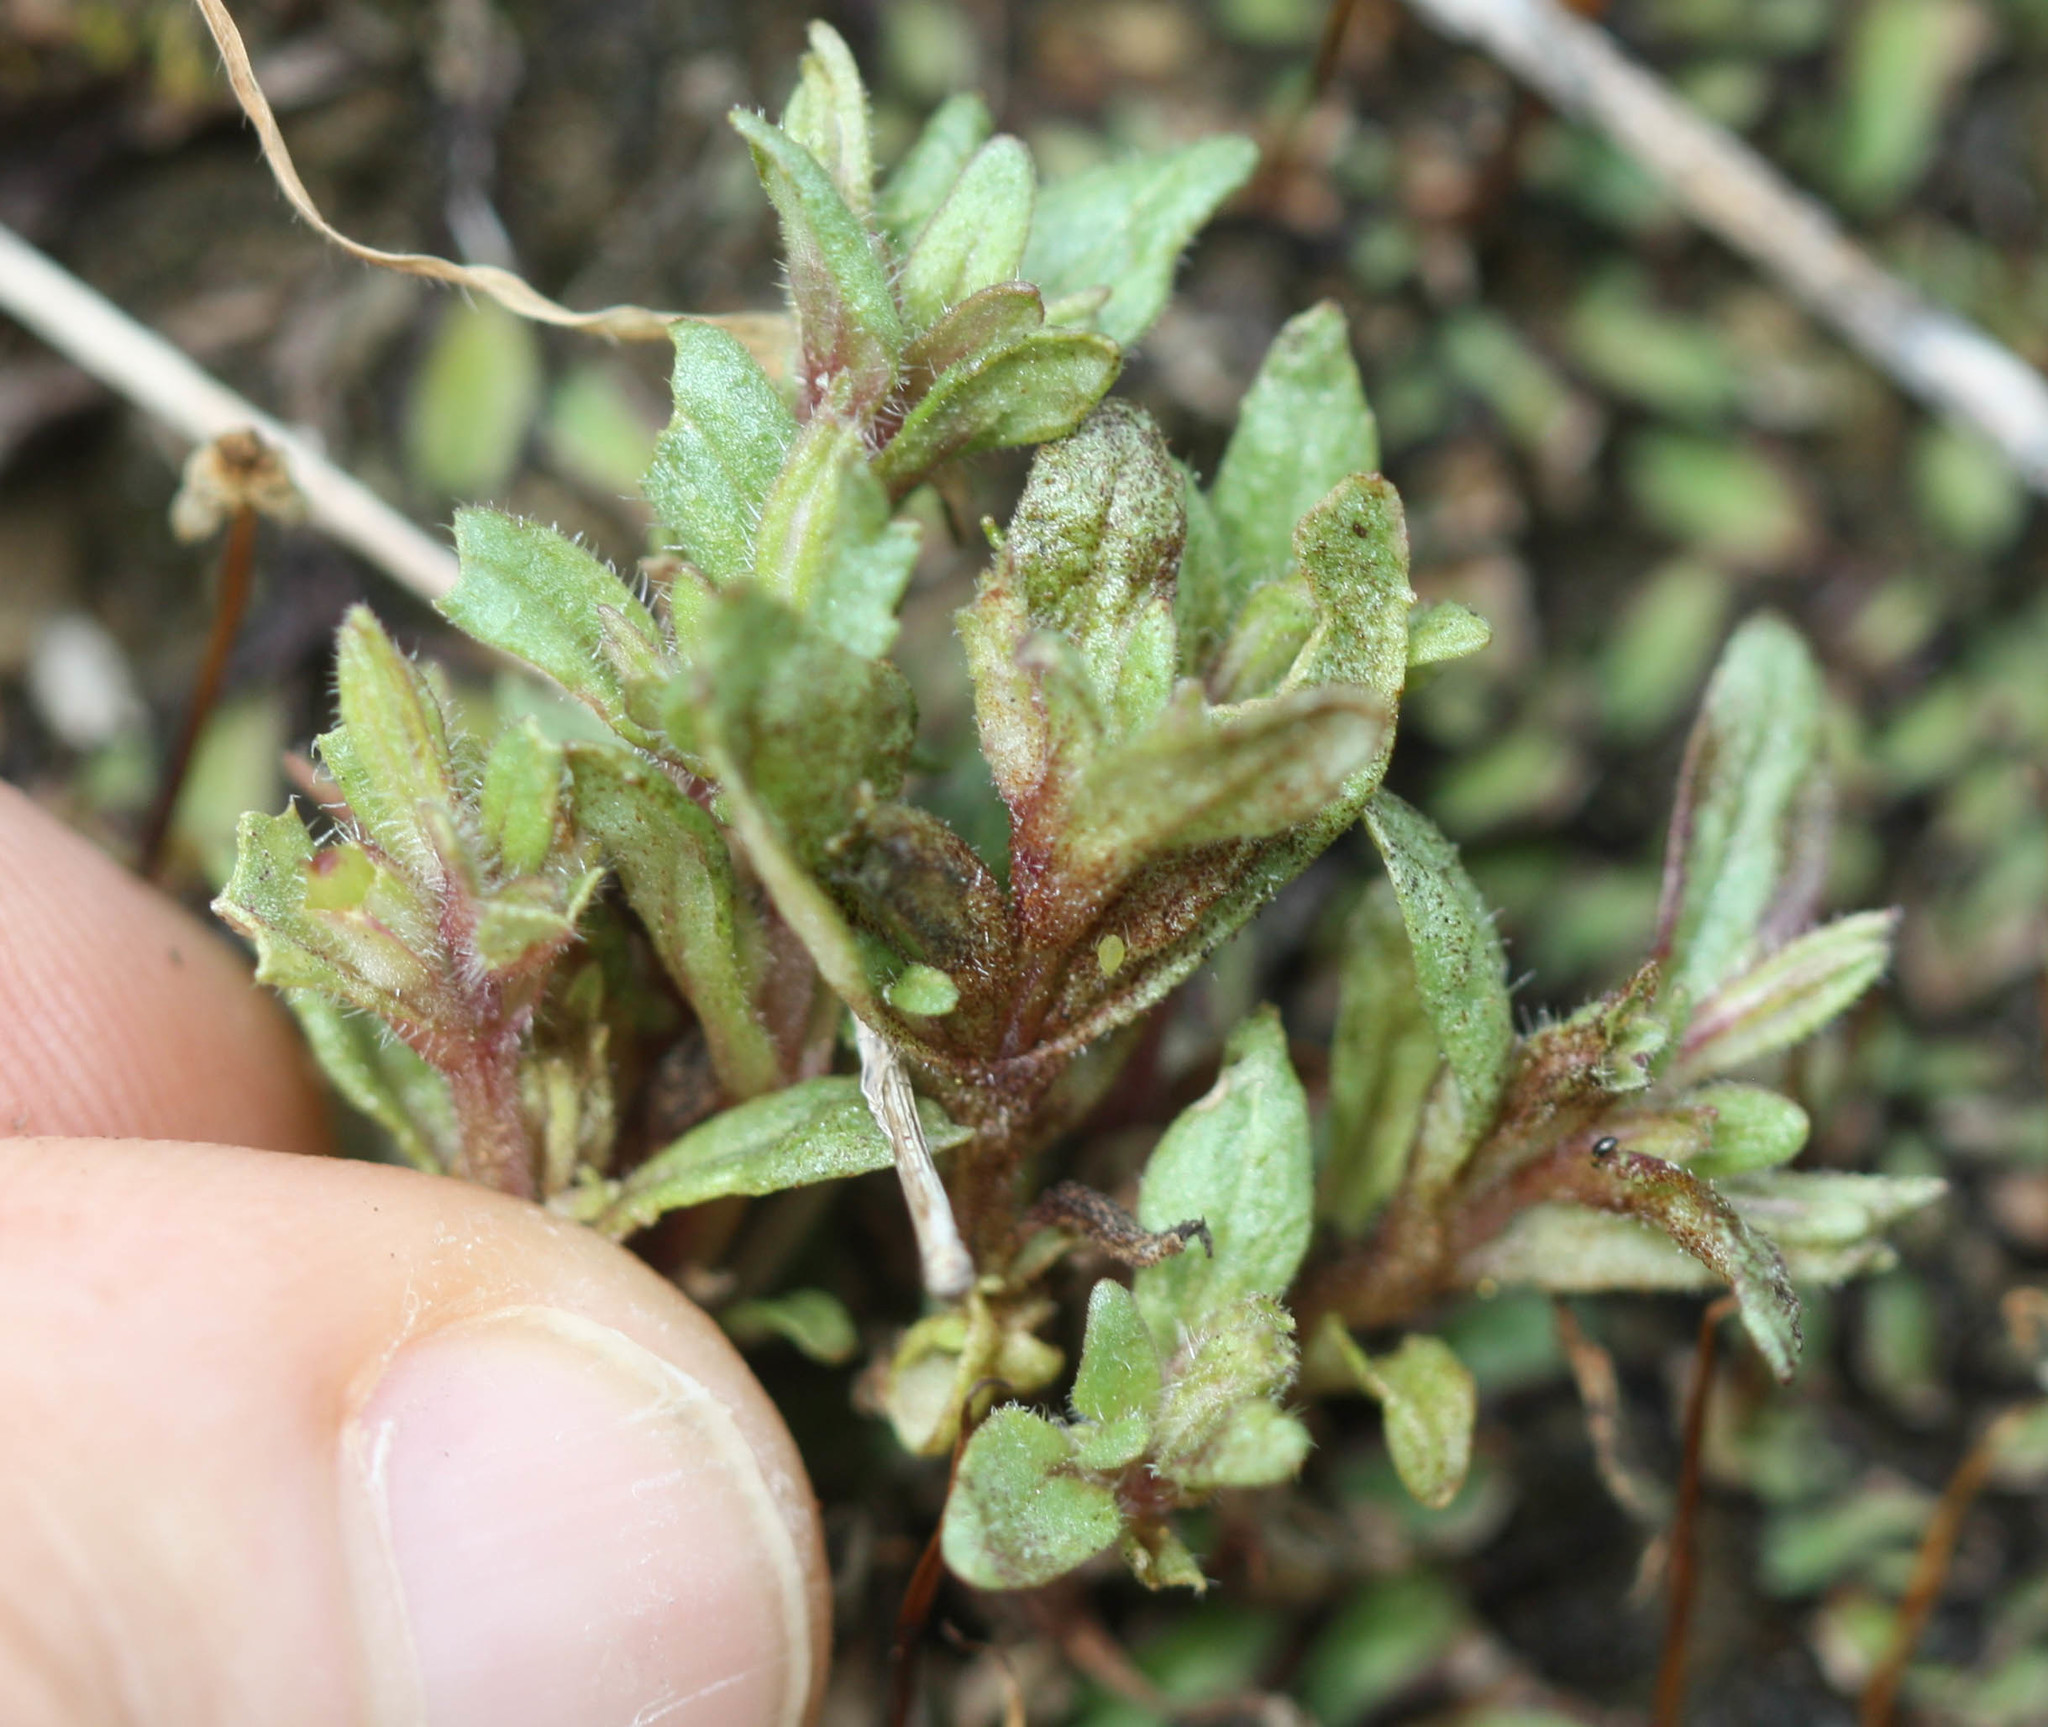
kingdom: Plantae
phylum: Tracheophyta
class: Magnoliopsida
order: Lamiales
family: Phrymaceae
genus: Diplacus
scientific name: Diplacus congdonii
